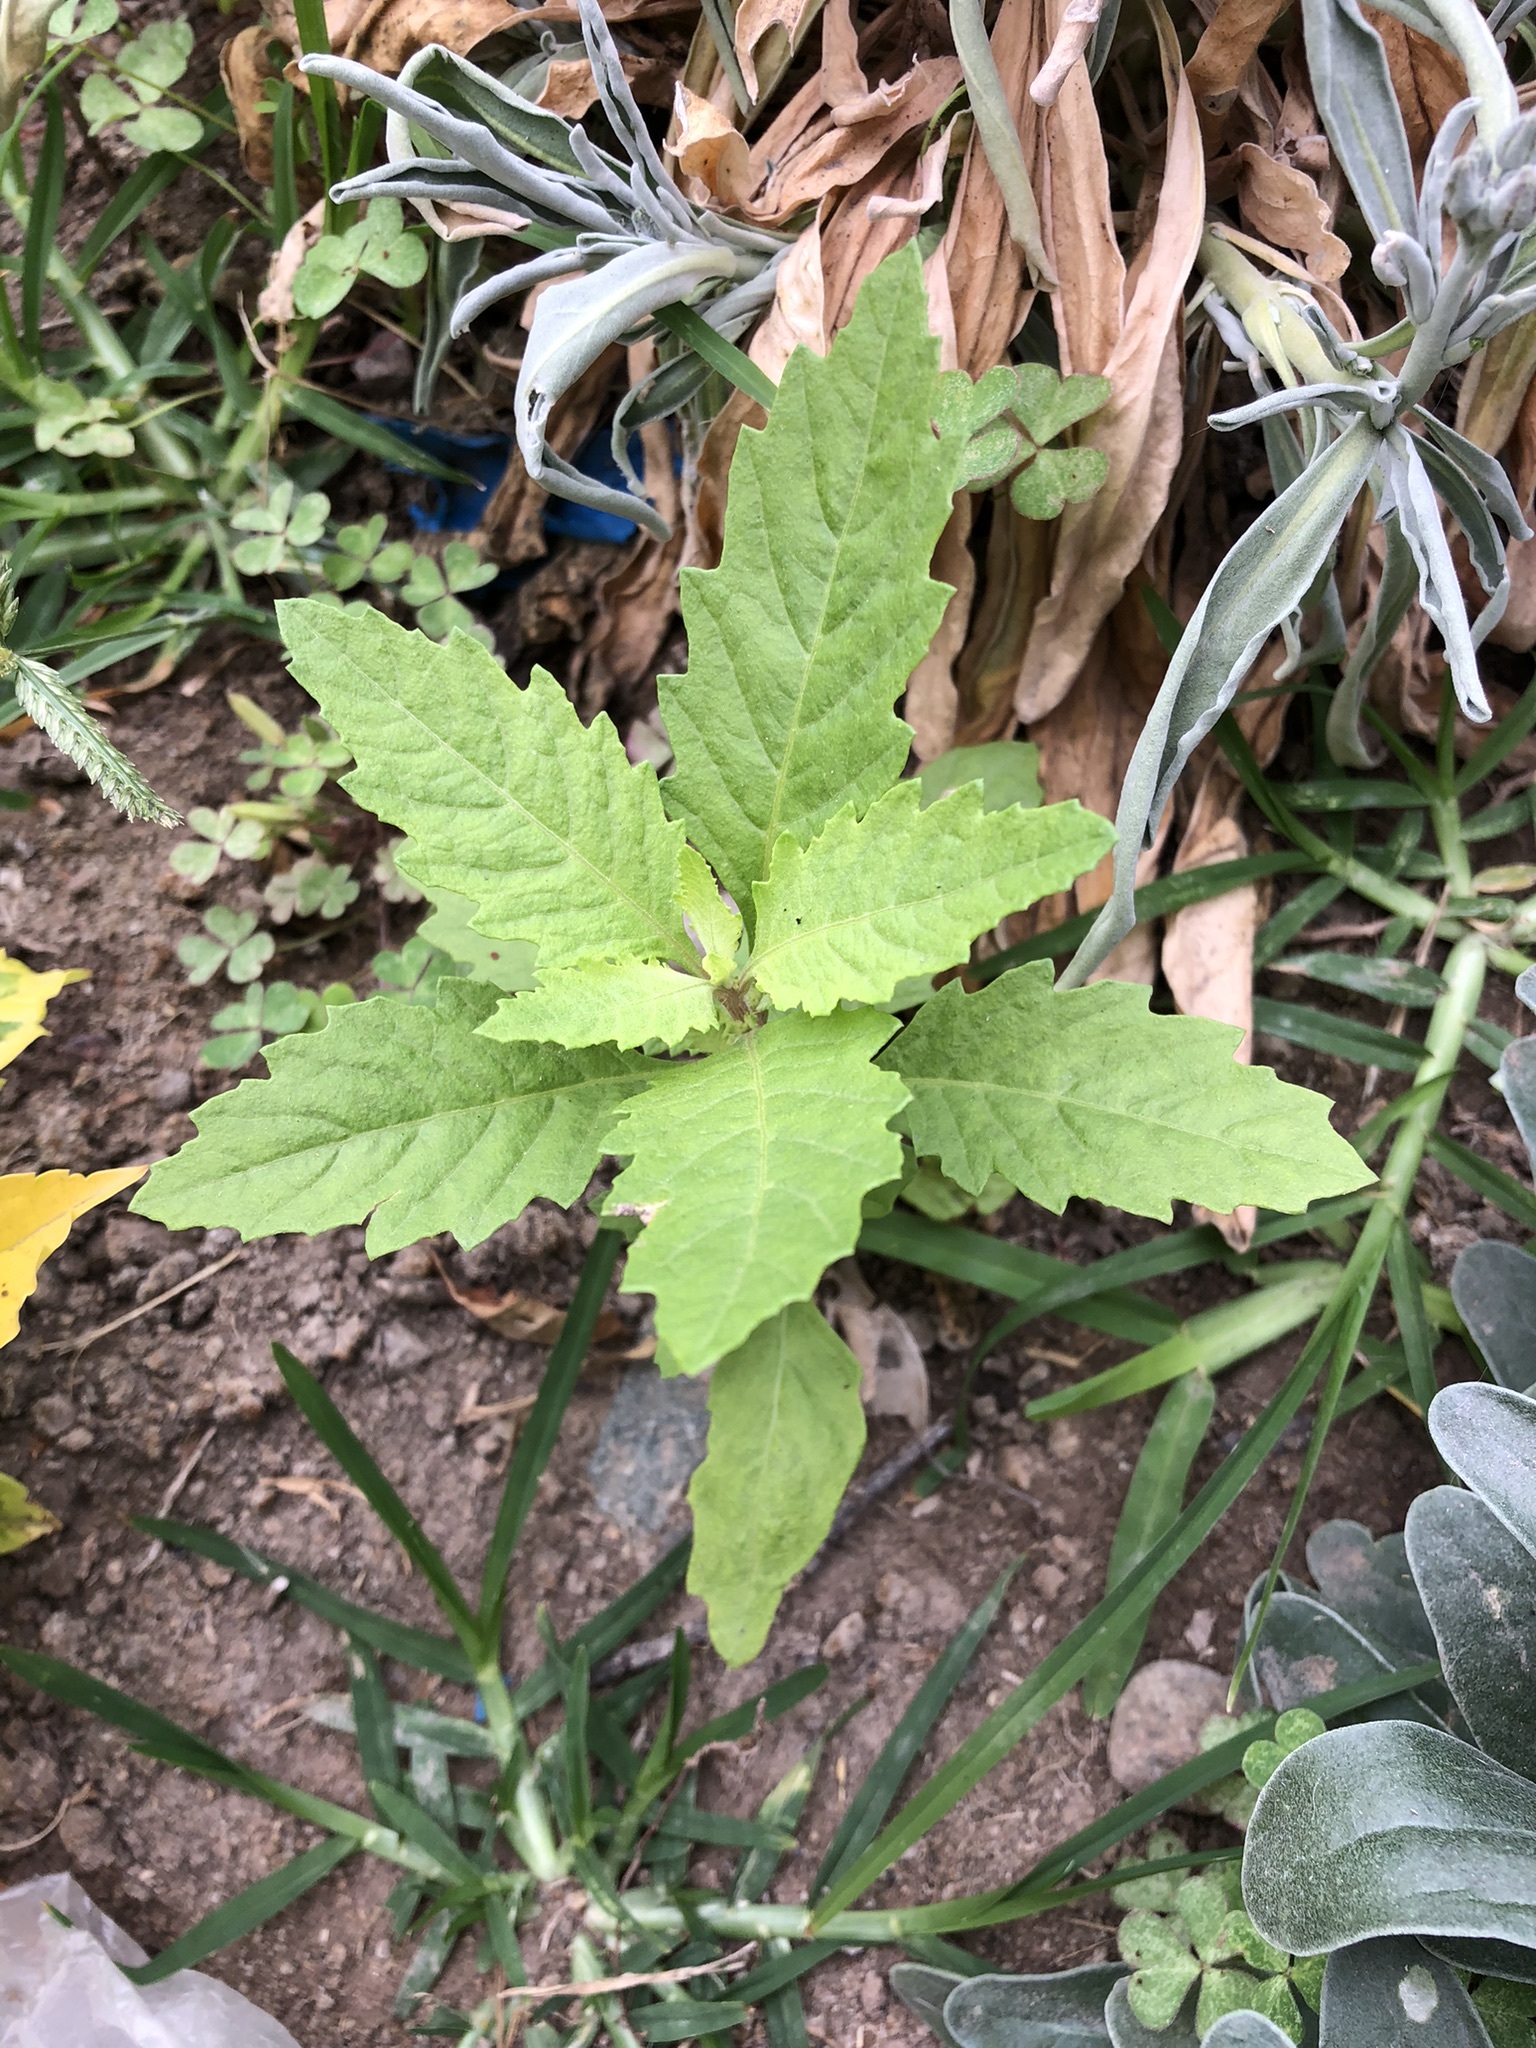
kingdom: Plantae
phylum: Tracheophyta
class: Magnoliopsida
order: Caryophyllales
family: Amaranthaceae
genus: Dysphania
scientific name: Dysphania ambrosioides
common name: Wormseed
